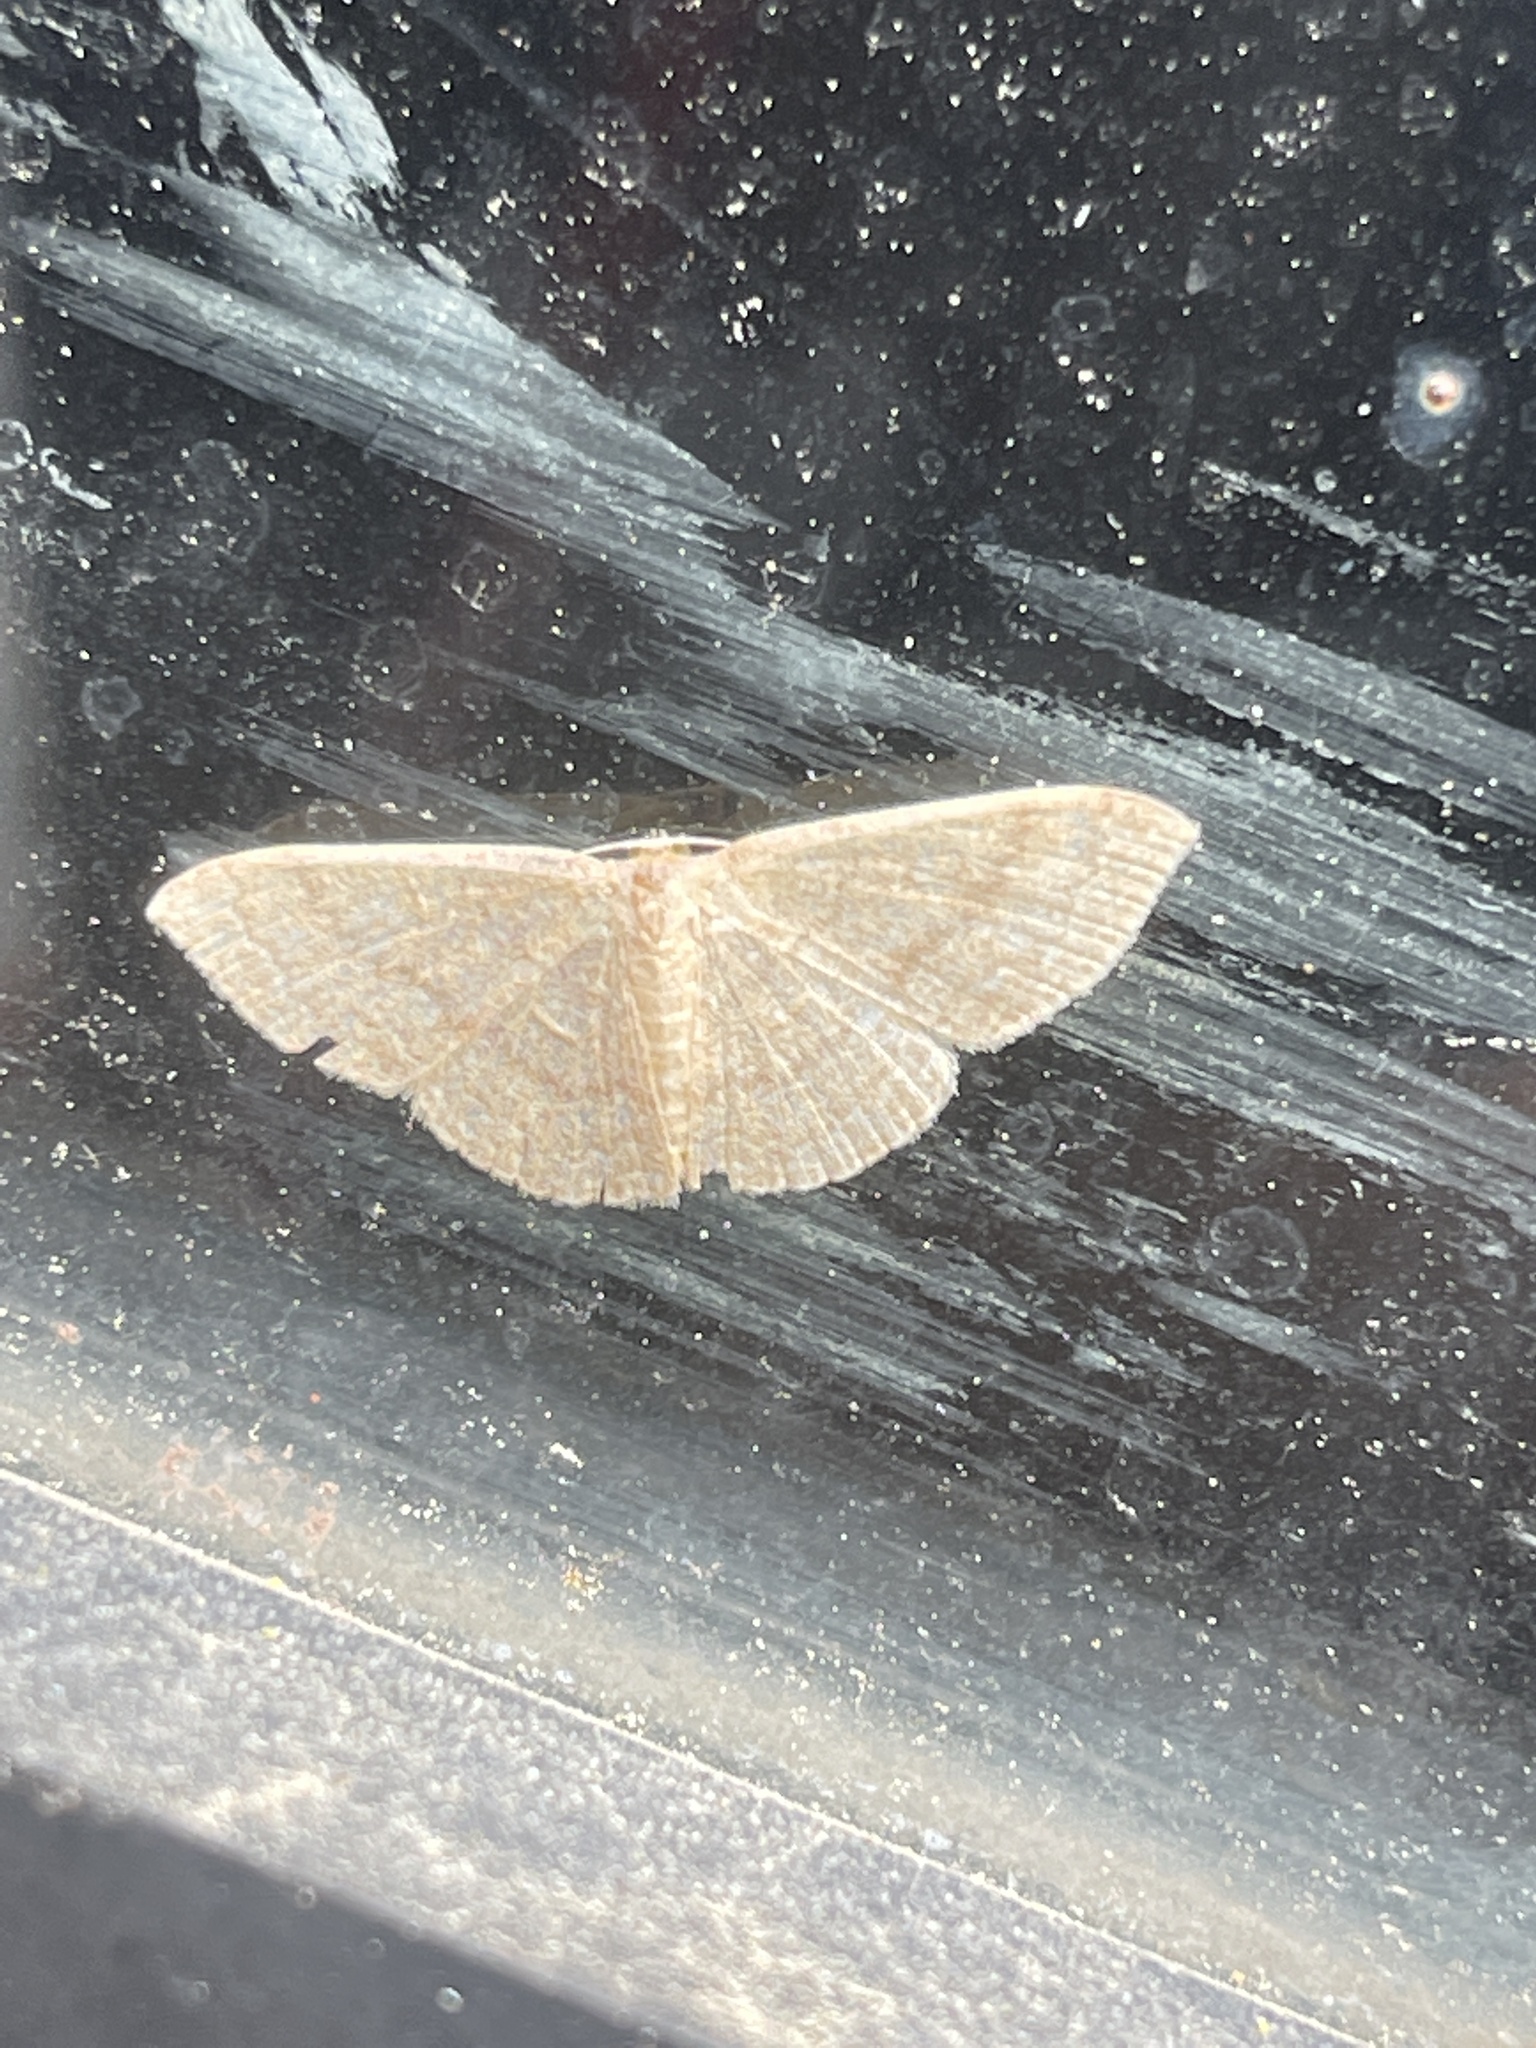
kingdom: Animalia
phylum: Arthropoda
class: Insecta
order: Lepidoptera
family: Geometridae
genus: Pleuroprucha
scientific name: Pleuroprucha insulsaria
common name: Common tan wave
